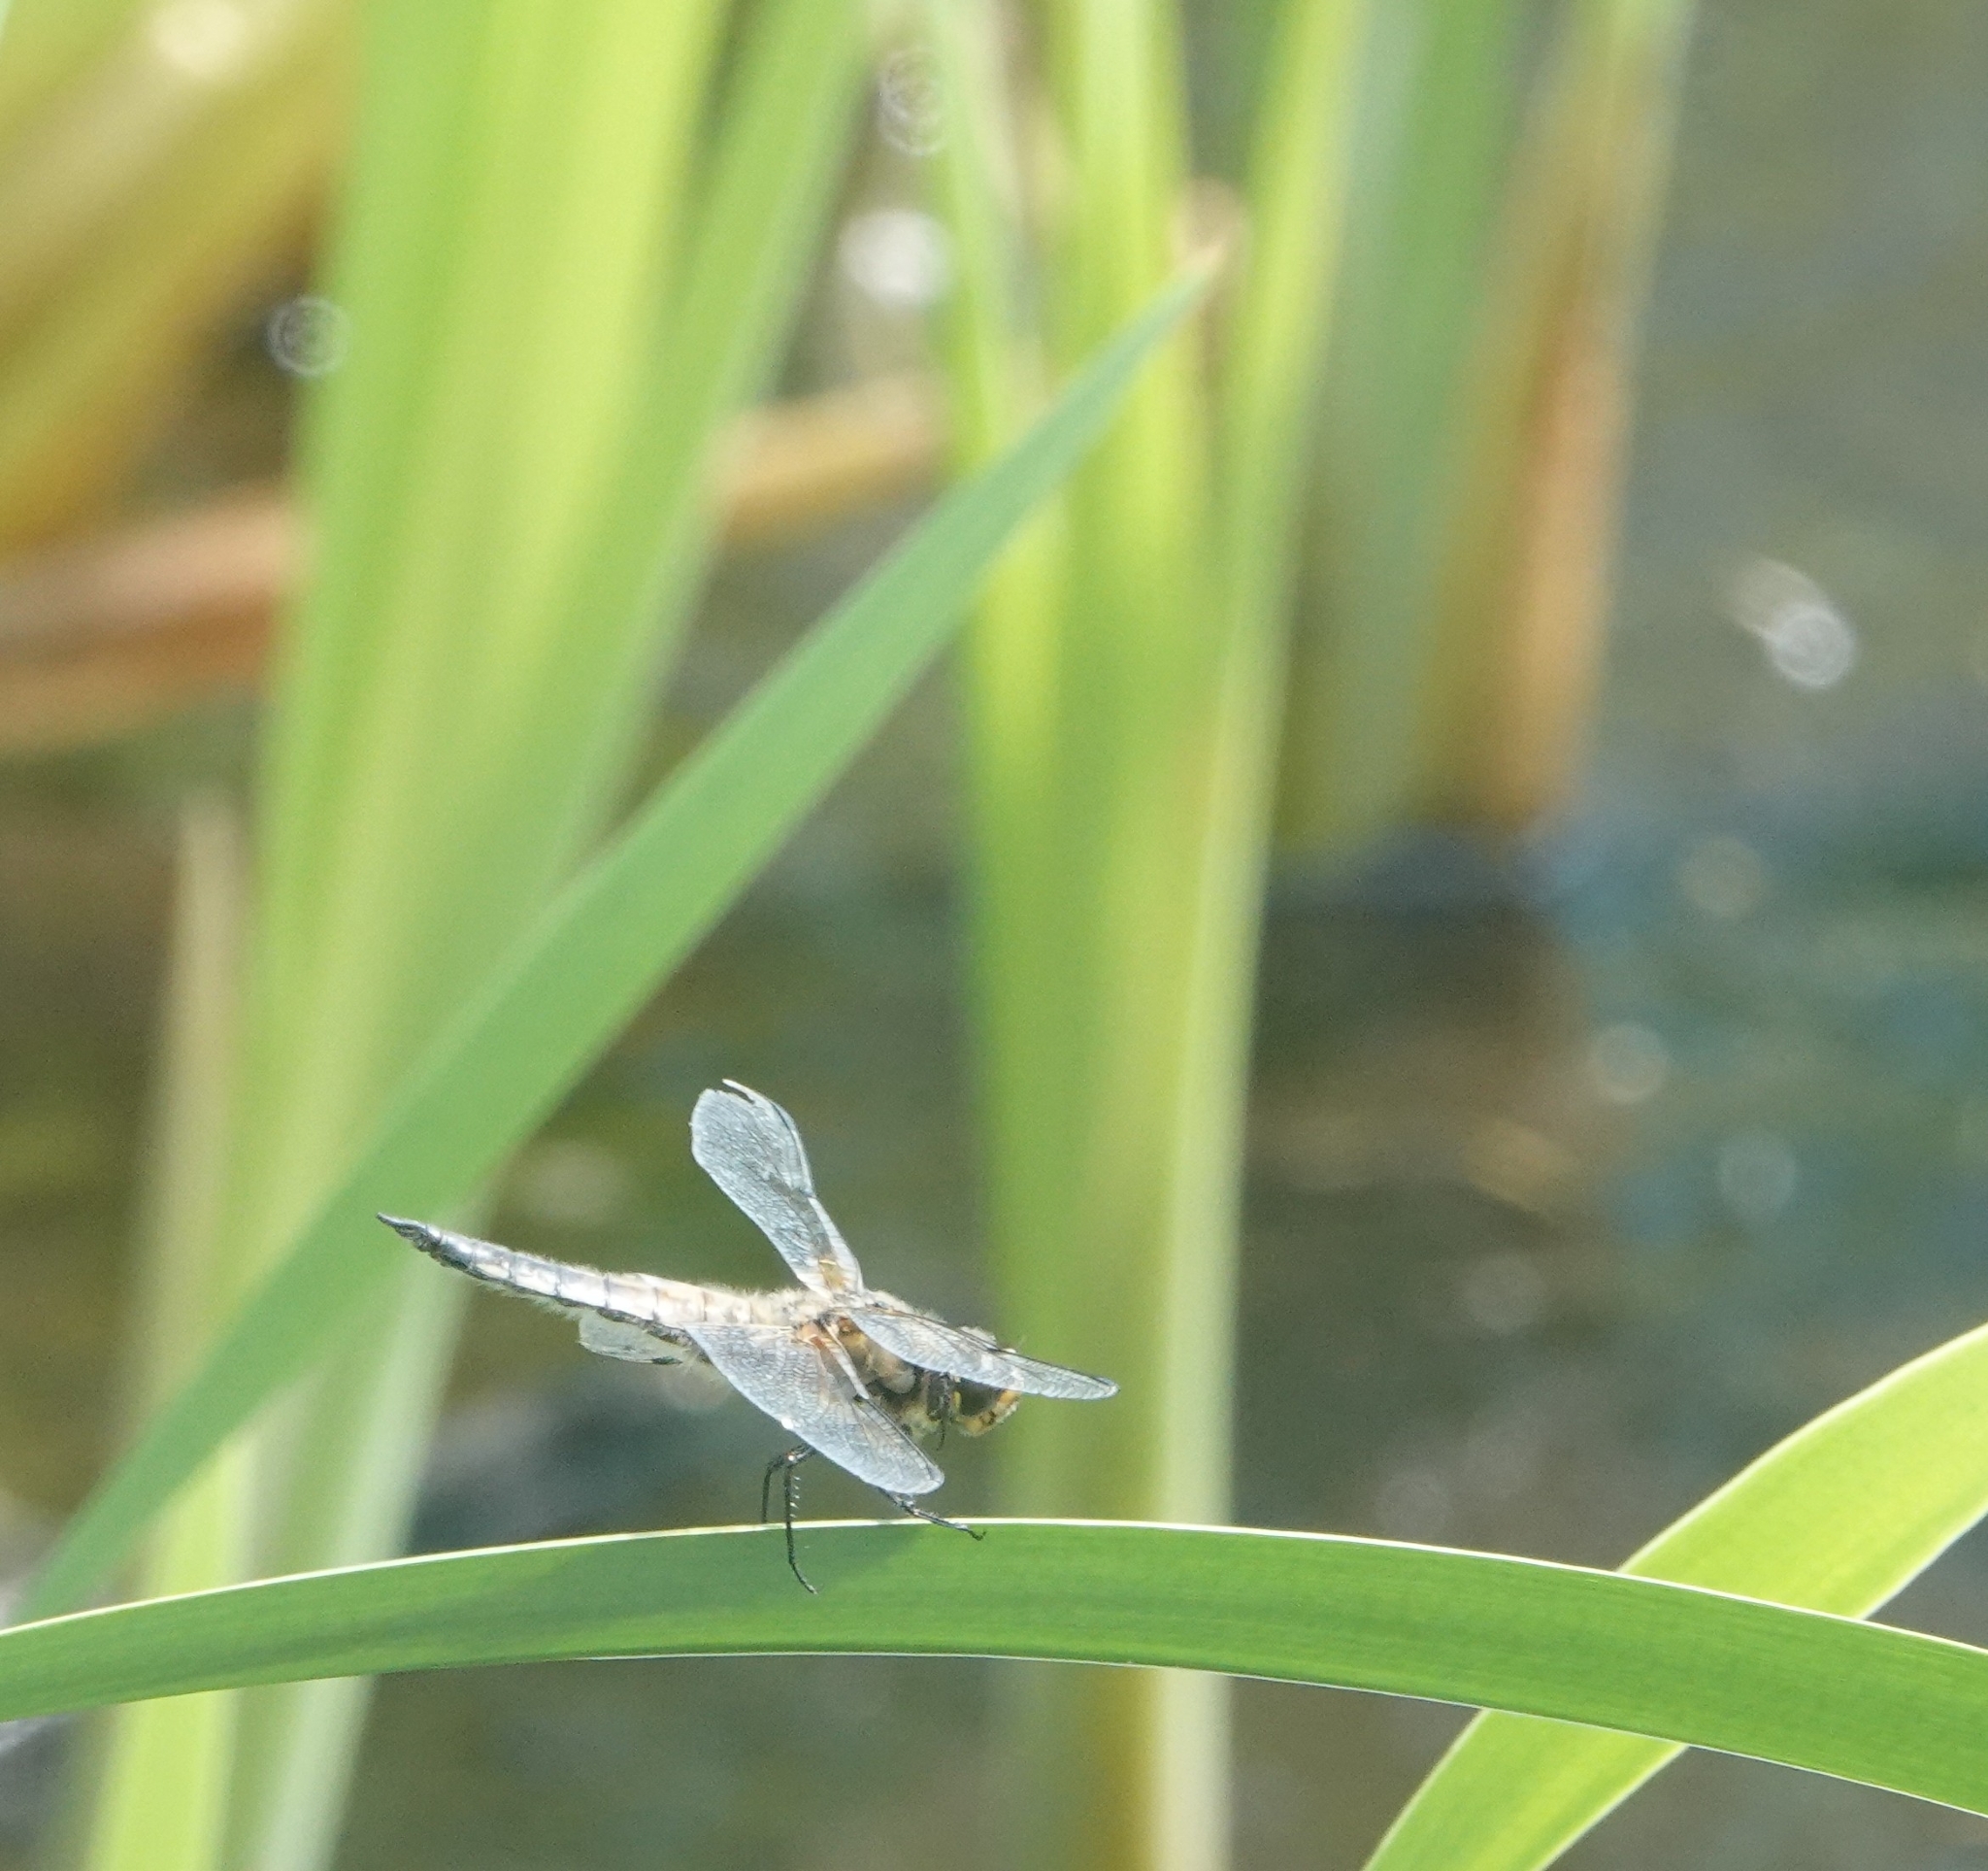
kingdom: Animalia
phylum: Arthropoda
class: Insecta
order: Odonata
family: Libellulidae
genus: Libellula
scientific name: Libellula quadrimaculata
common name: Four-spotted chaser
